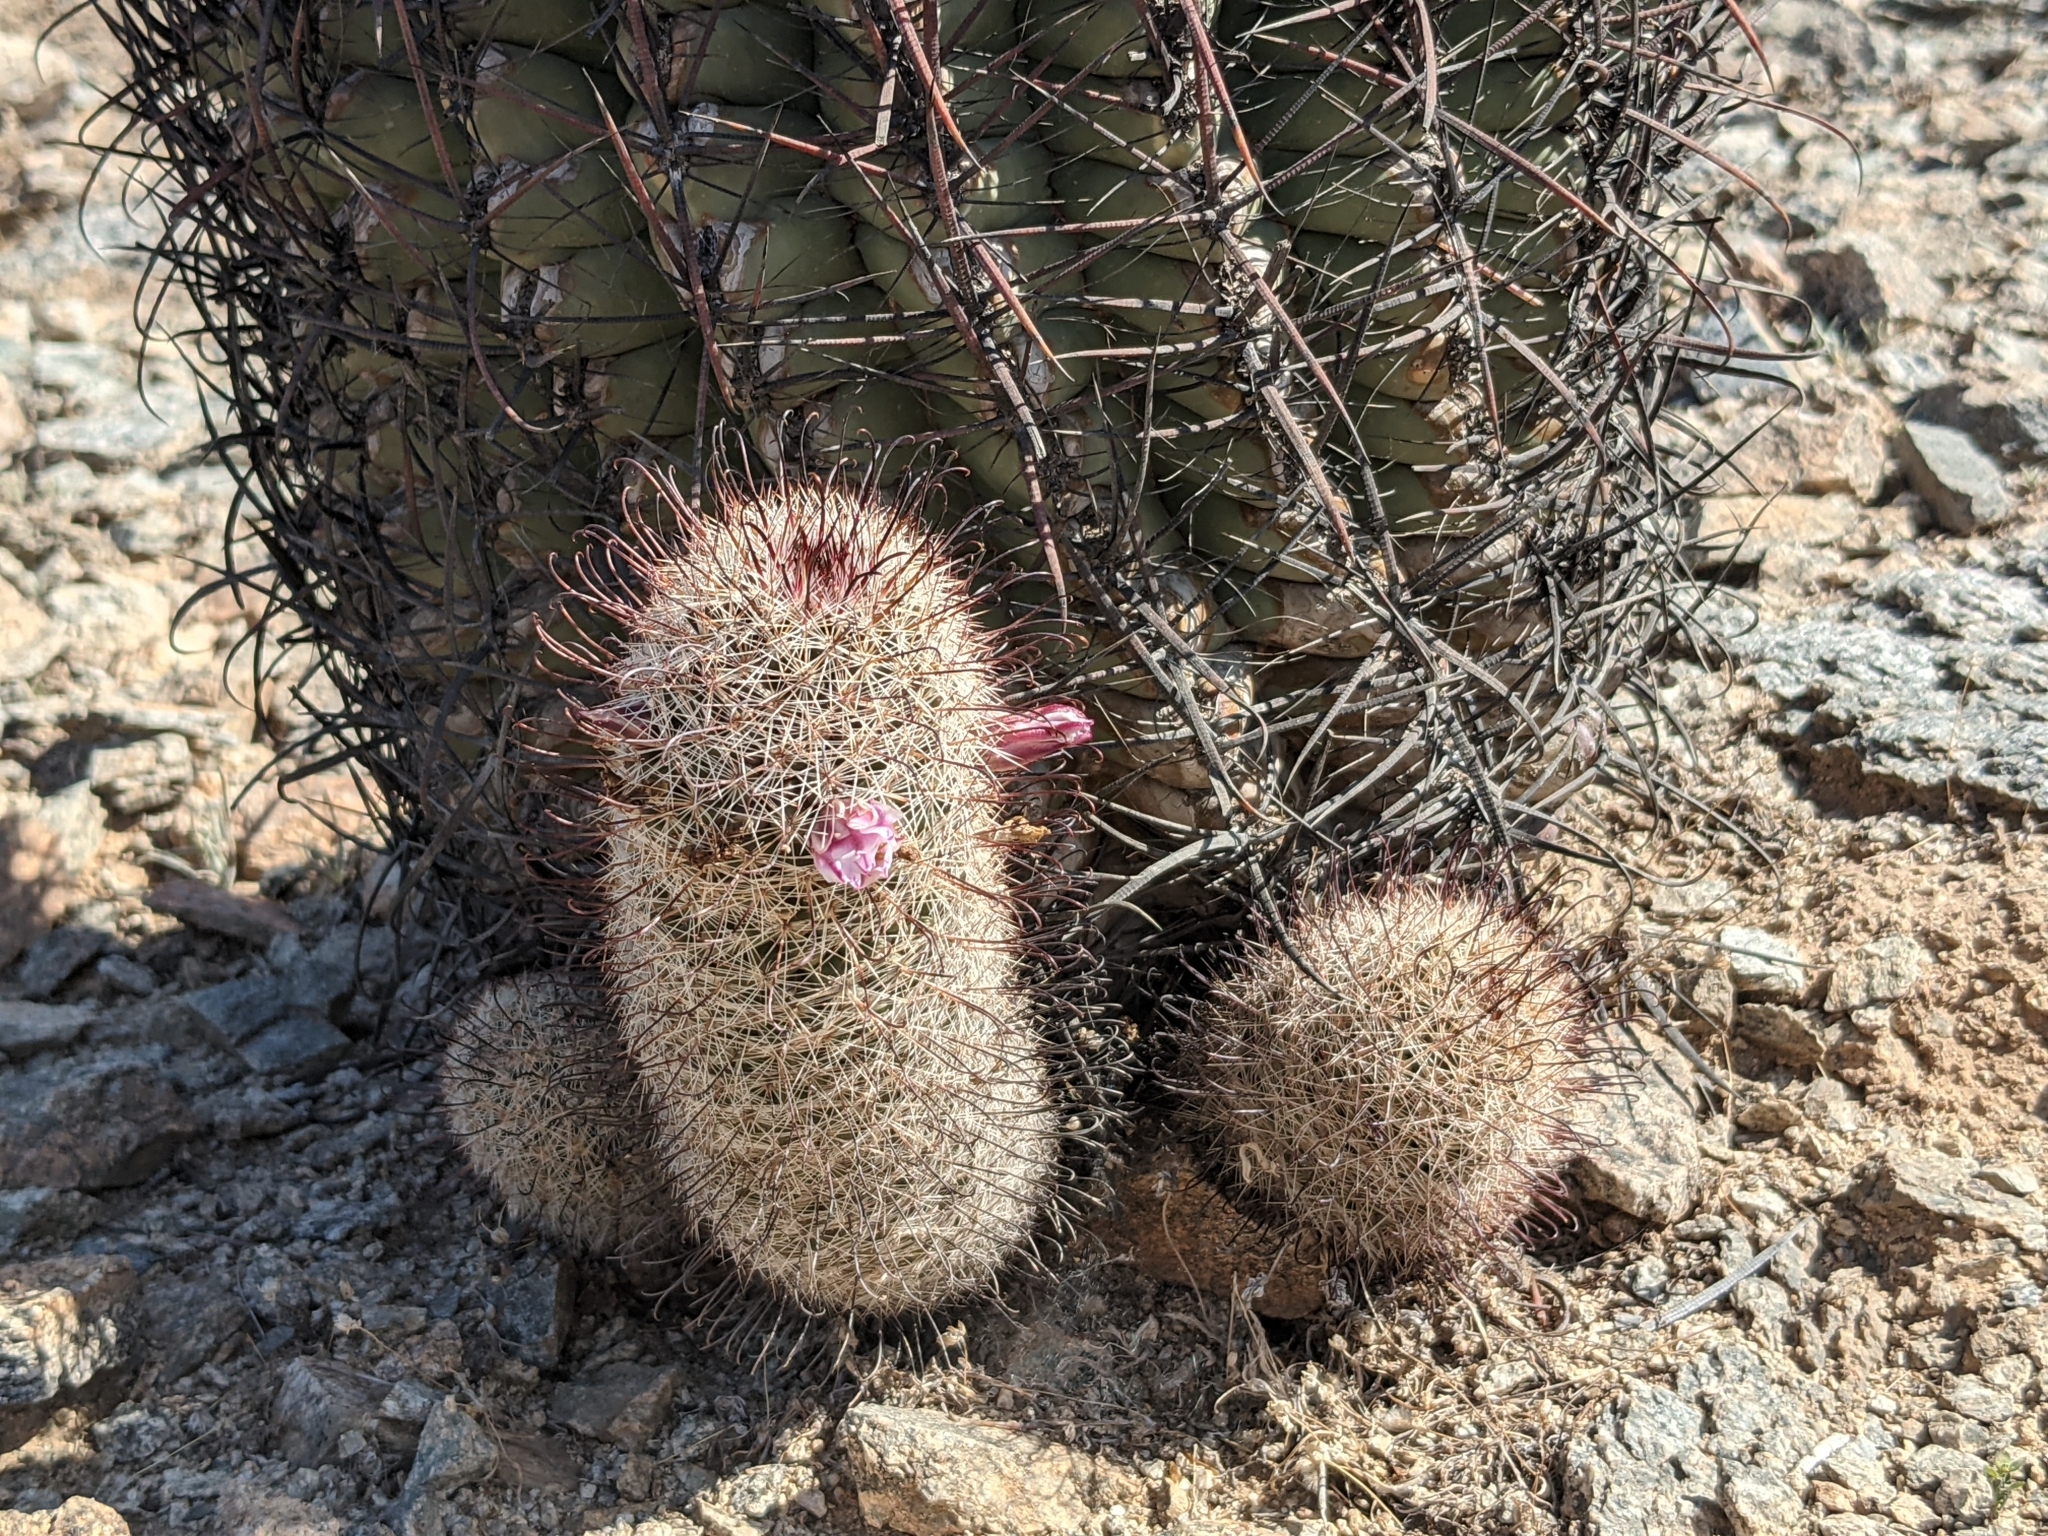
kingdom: Plantae
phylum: Tracheophyta
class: Magnoliopsida
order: Caryophyllales
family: Cactaceae
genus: Cochemiea
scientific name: Cochemiea grahamii
